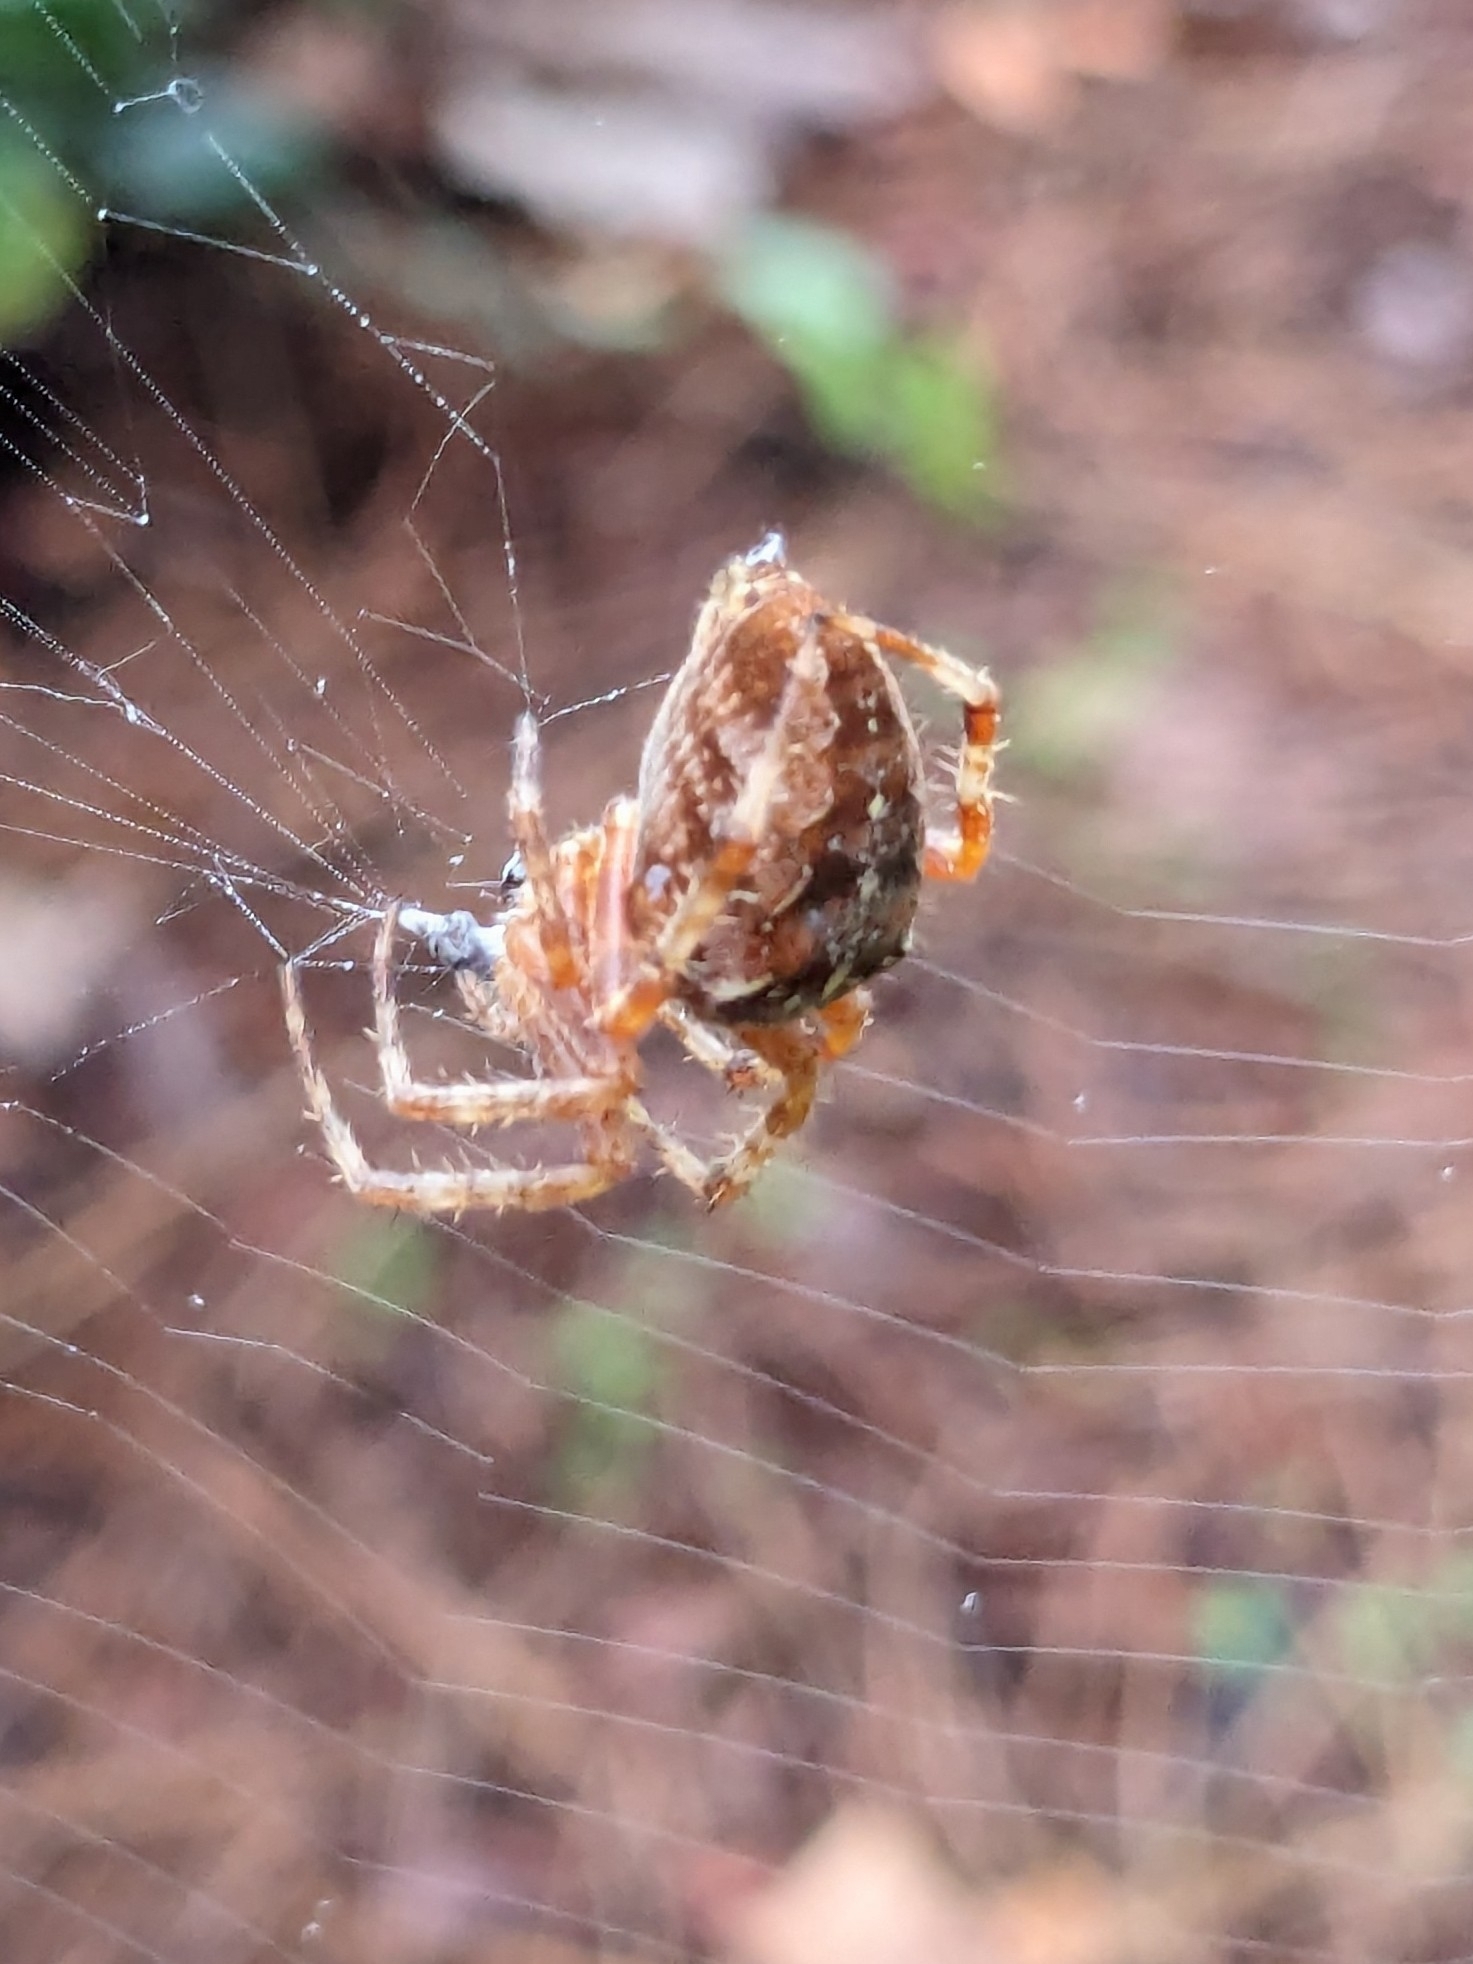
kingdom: Animalia
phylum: Arthropoda
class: Arachnida
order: Araneae
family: Araneidae
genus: Araneus
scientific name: Araneus diadematus
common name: Cross orbweaver
